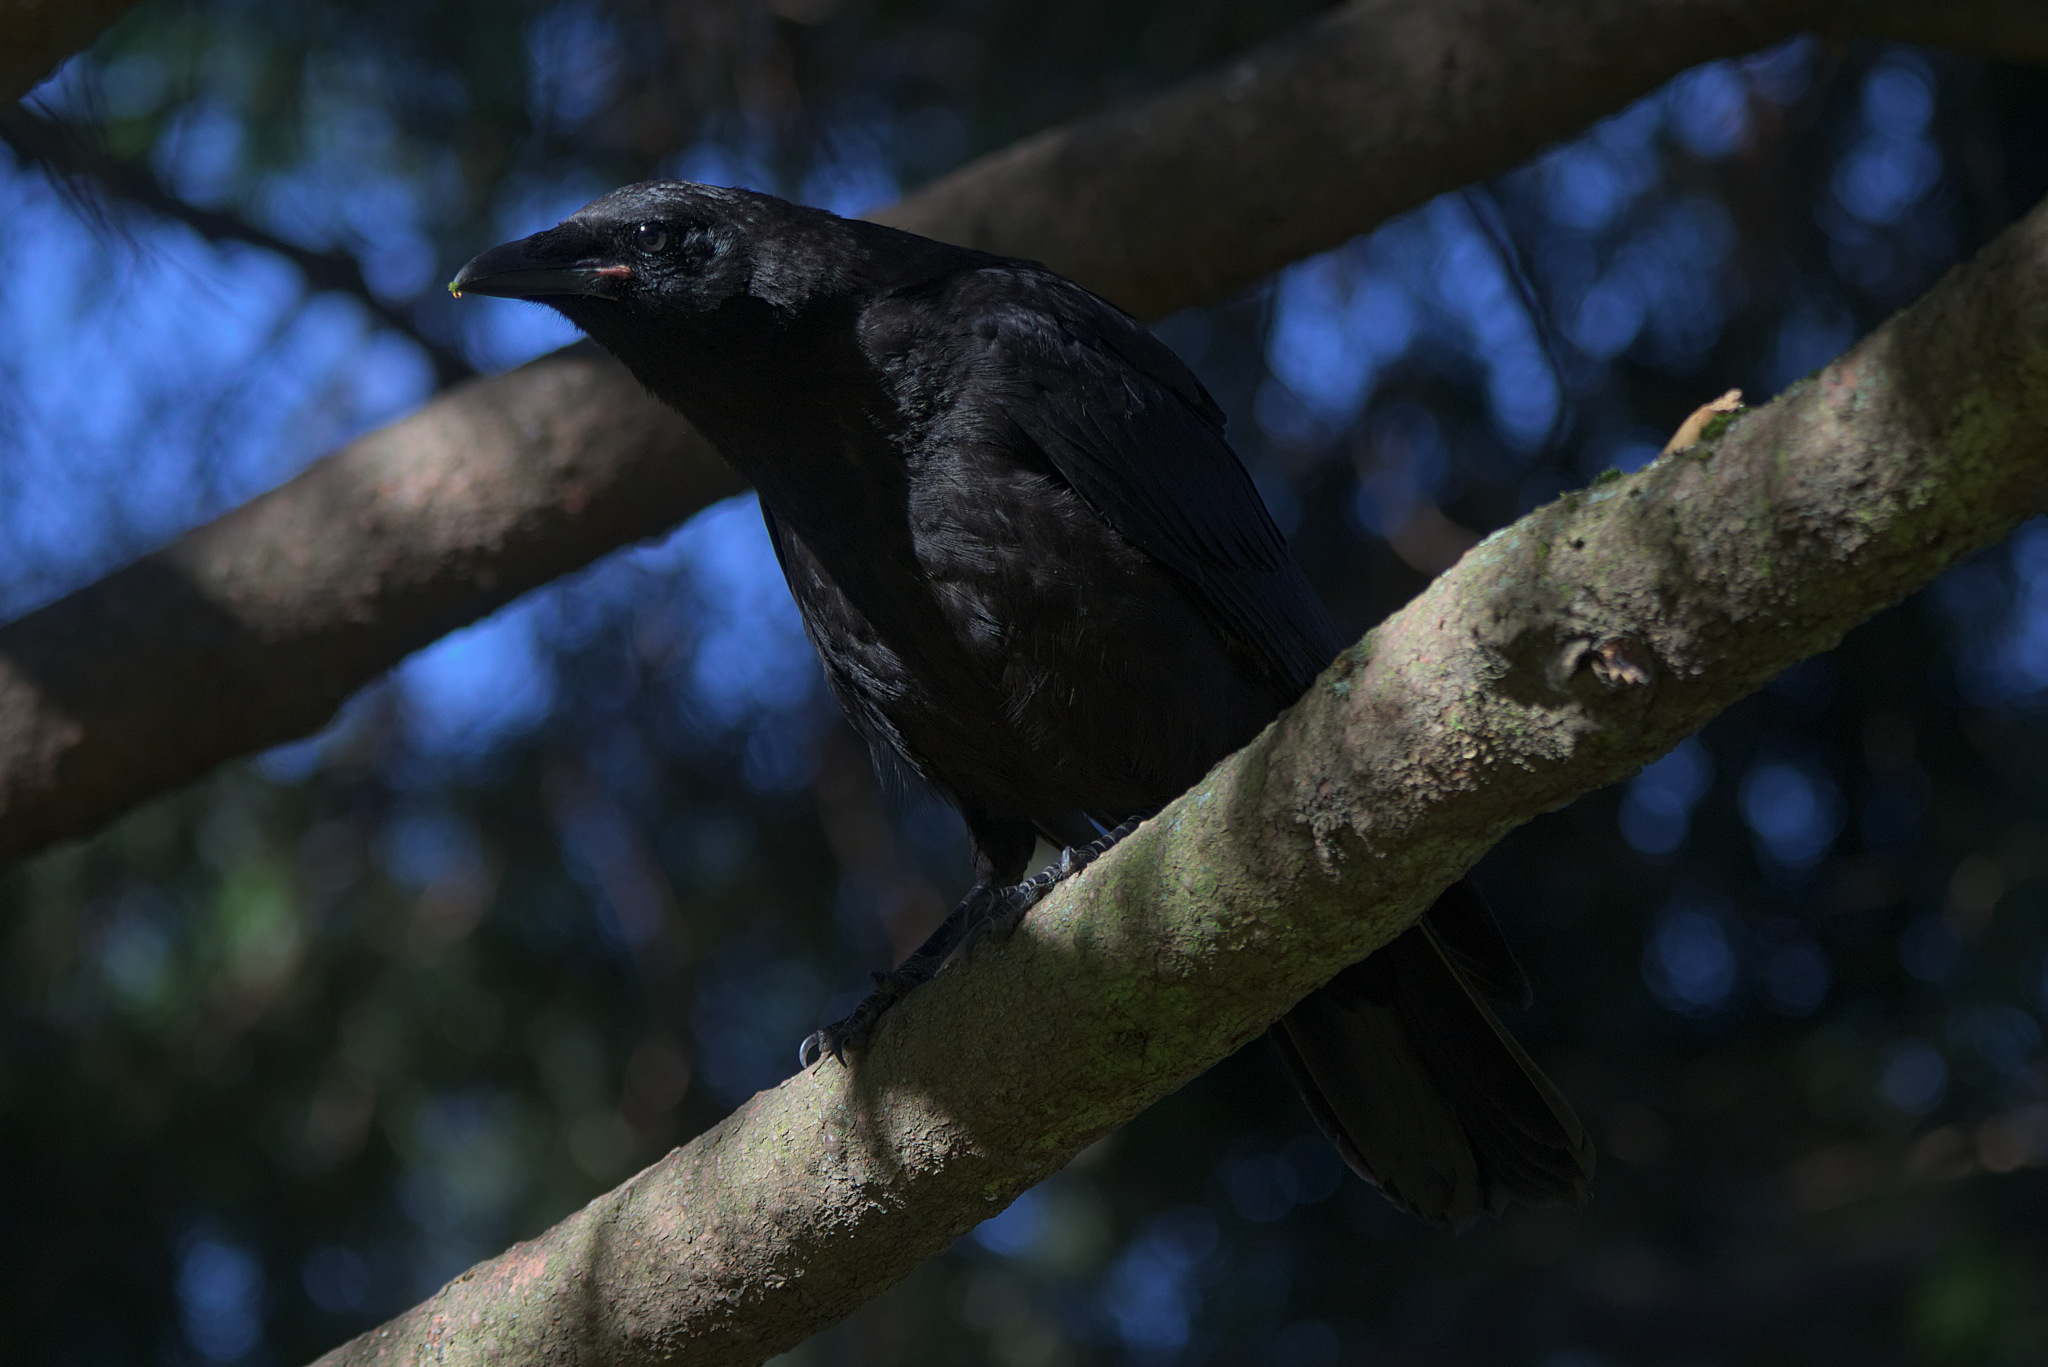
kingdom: Animalia
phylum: Chordata
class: Aves
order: Passeriformes
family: Corvidae
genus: Corvus
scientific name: Corvus brachyrhynchos
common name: American crow
